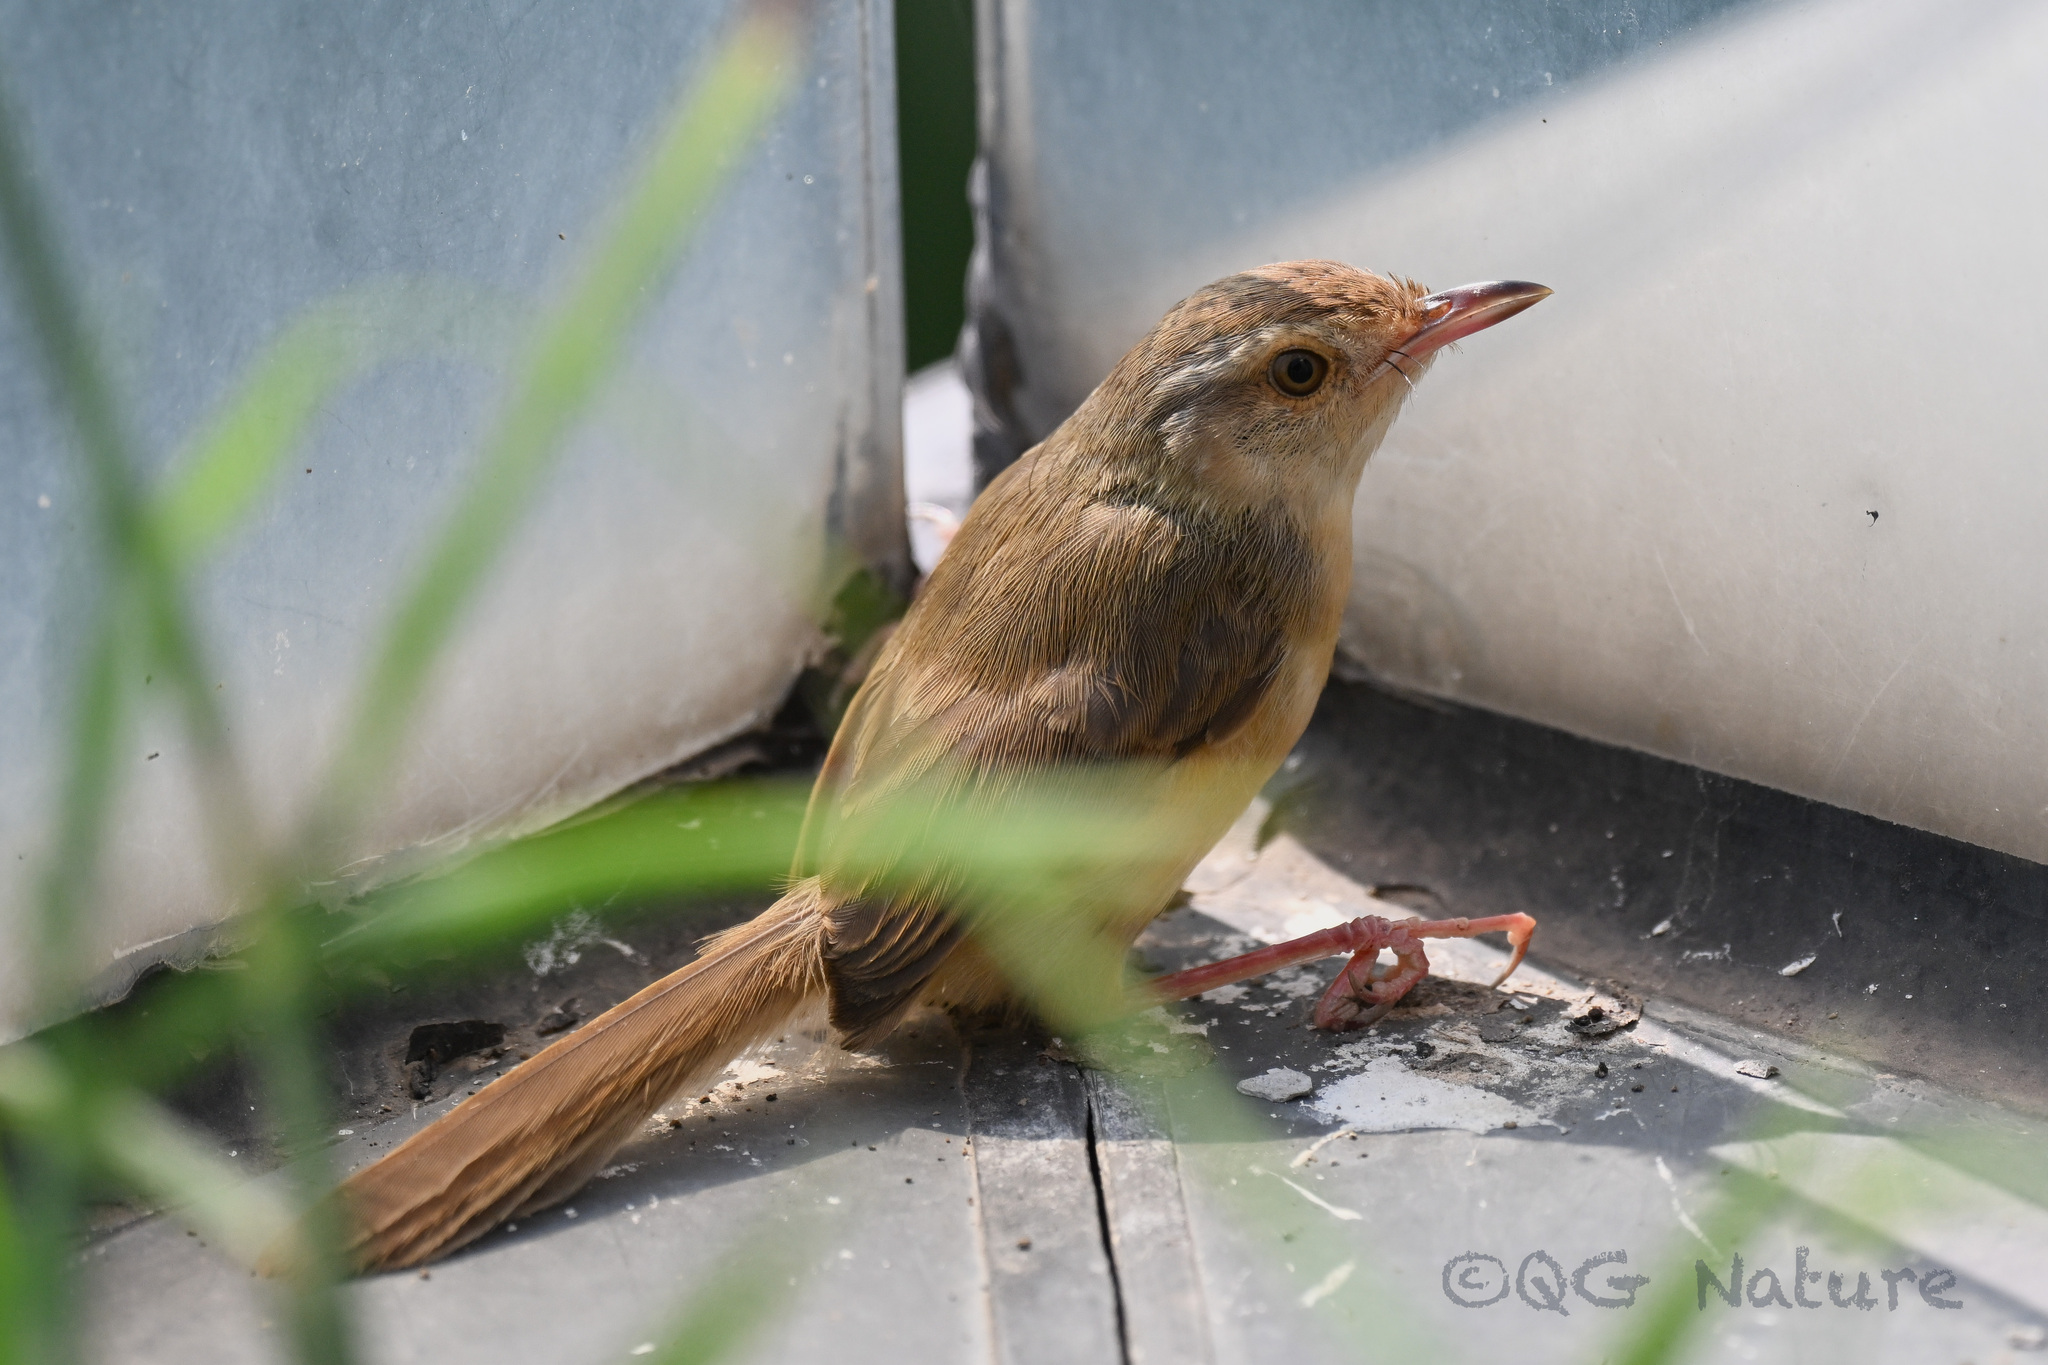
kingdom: Animalia
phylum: Chordata
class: Aves
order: Passeriformes
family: Cisticolidae
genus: Prinia
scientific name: Prinia inornata
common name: Plain prinia
